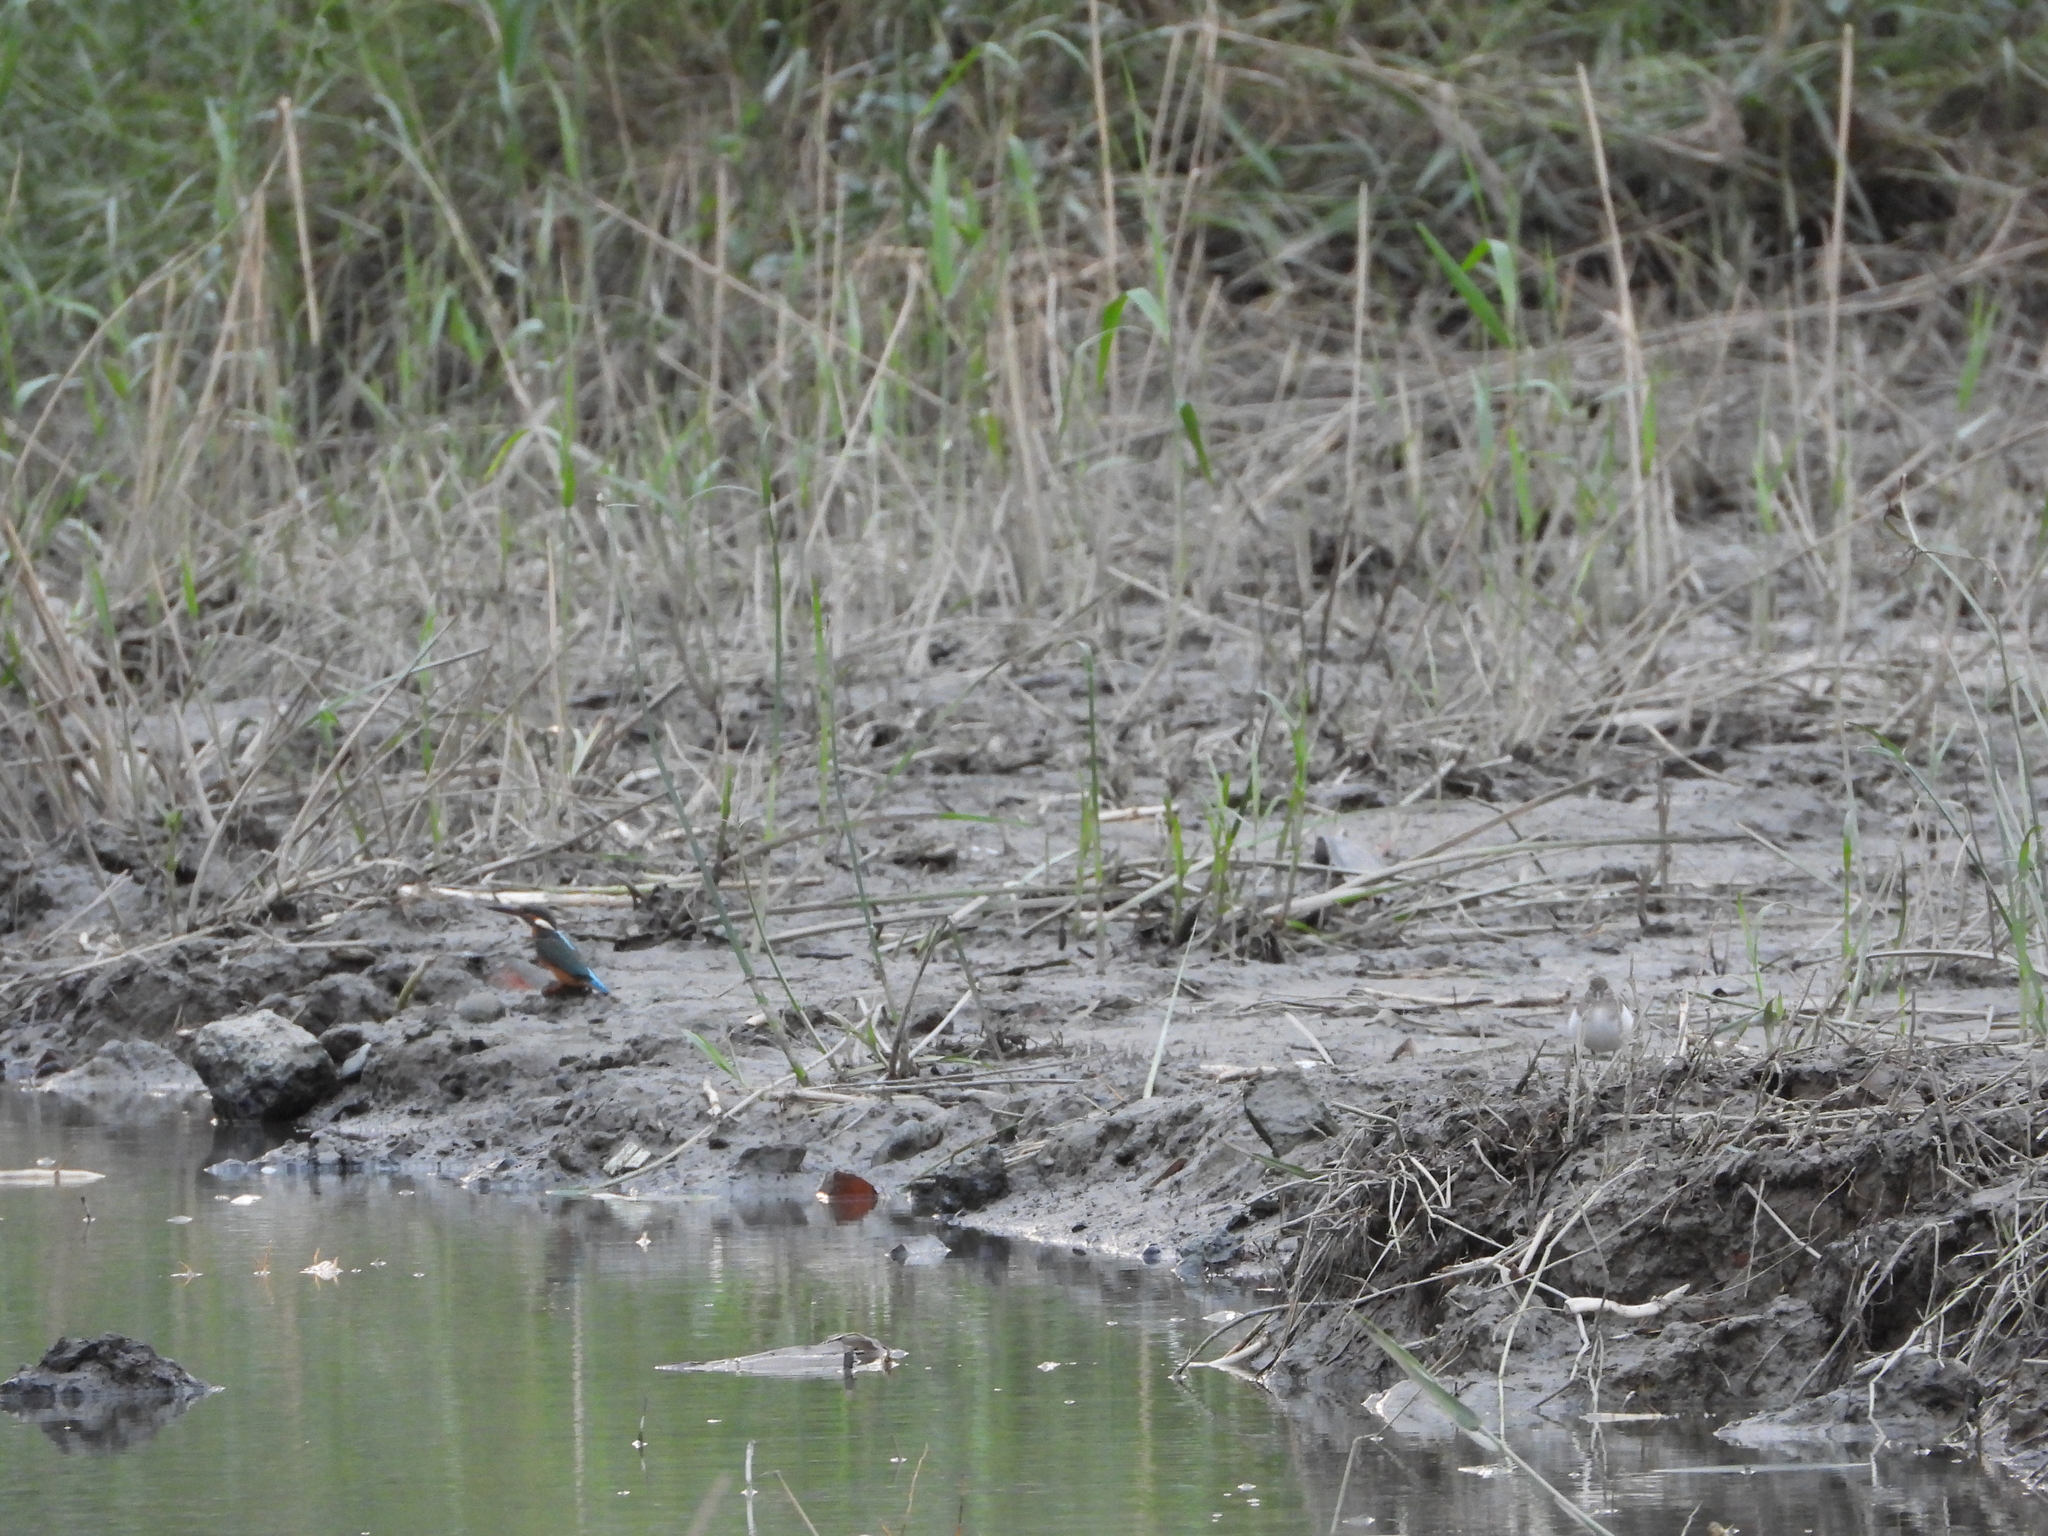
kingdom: Animalia
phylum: Chordata
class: Aves
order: Coraciiformes
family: Alcedinidae
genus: Alcedo
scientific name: Alcedo atthis
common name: Common kingfisher
